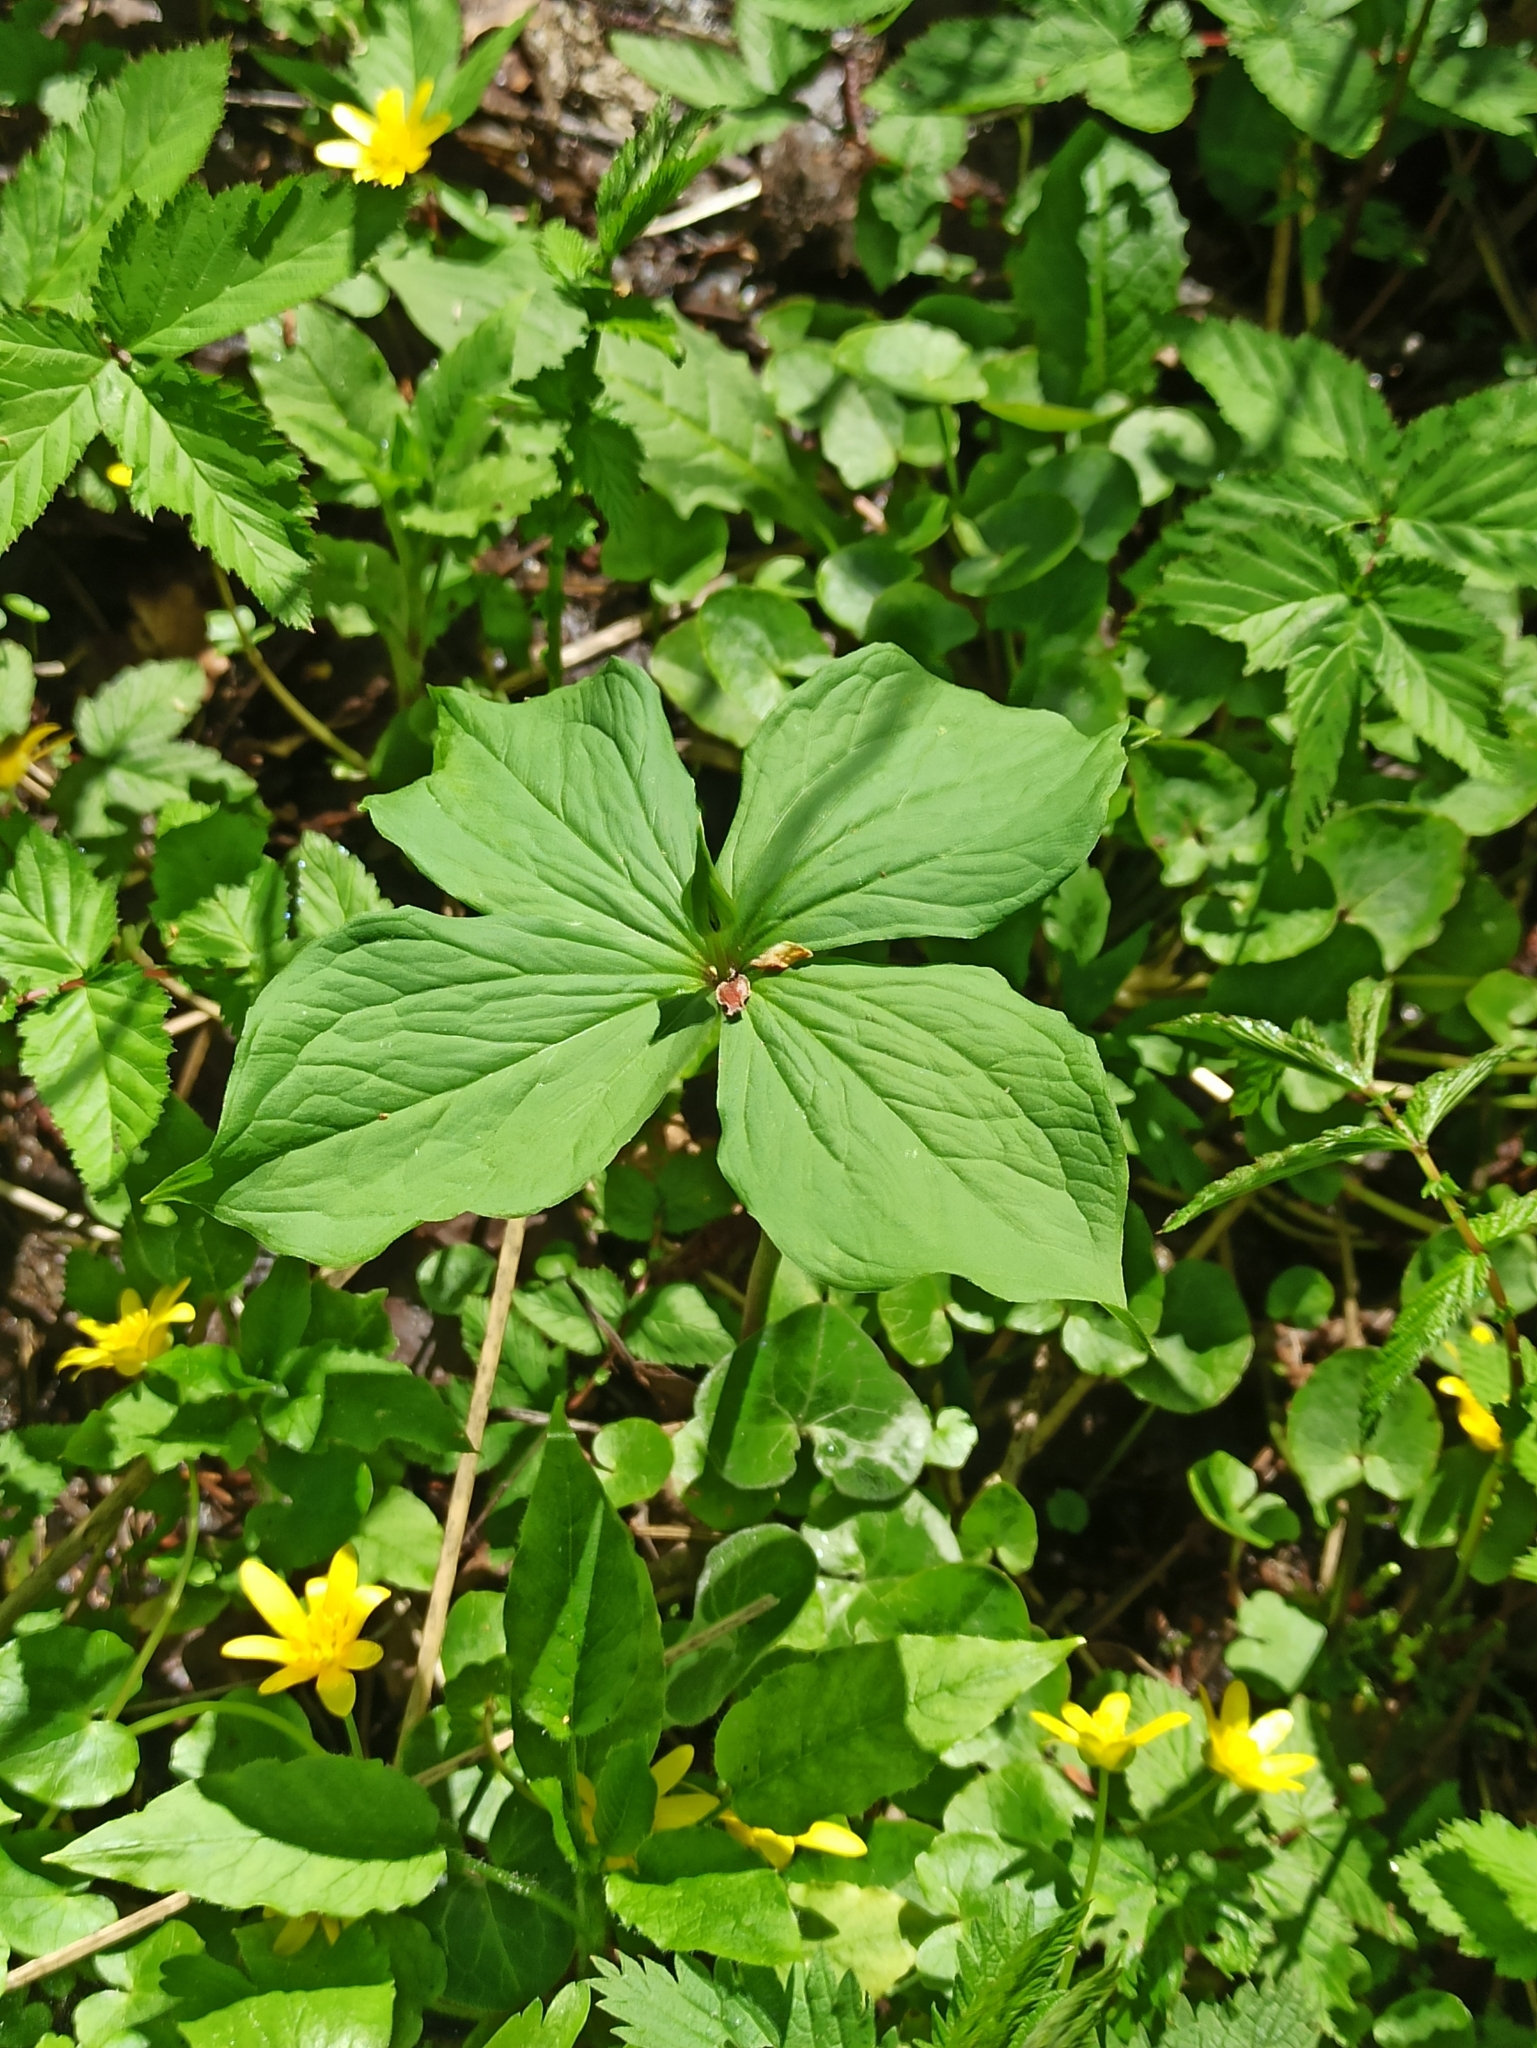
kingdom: Plantae
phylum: Tracheophyta
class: Liliopsida
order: Liliales
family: Melanthiaceae
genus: Paris
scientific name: Paris quadrifolia
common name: Herb-paris
